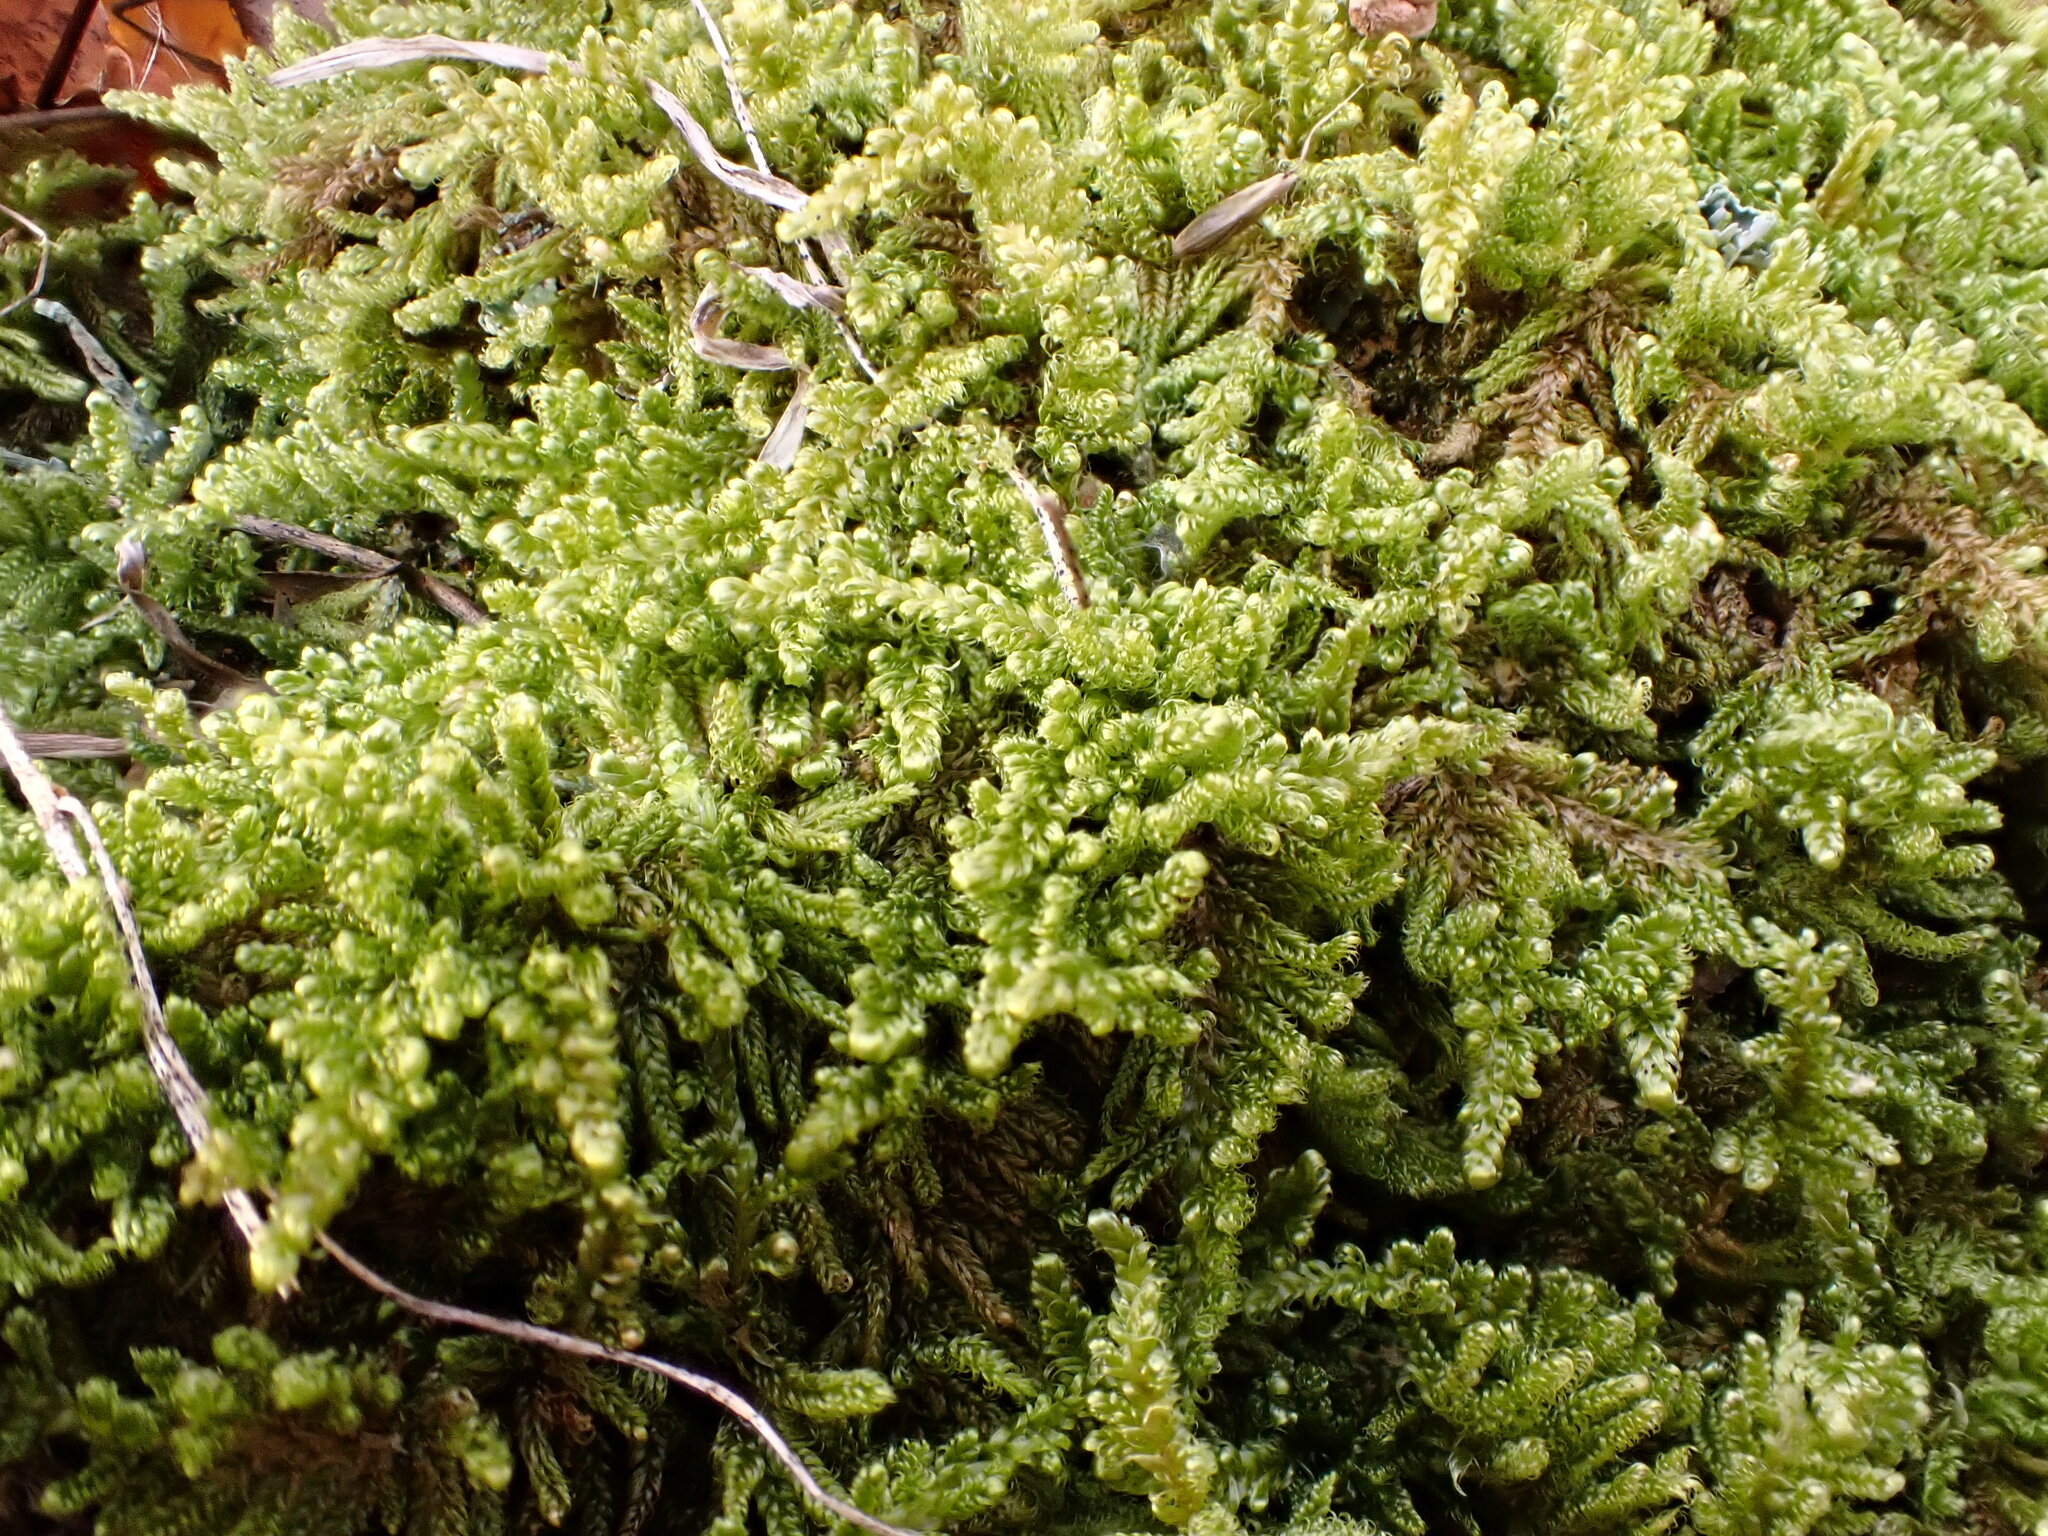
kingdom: Plantae
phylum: Bryophyta
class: Bryopsida
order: Hypnales
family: Callicladiaceae
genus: Callicladium
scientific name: Callicladium imponens
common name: Brocade moss
